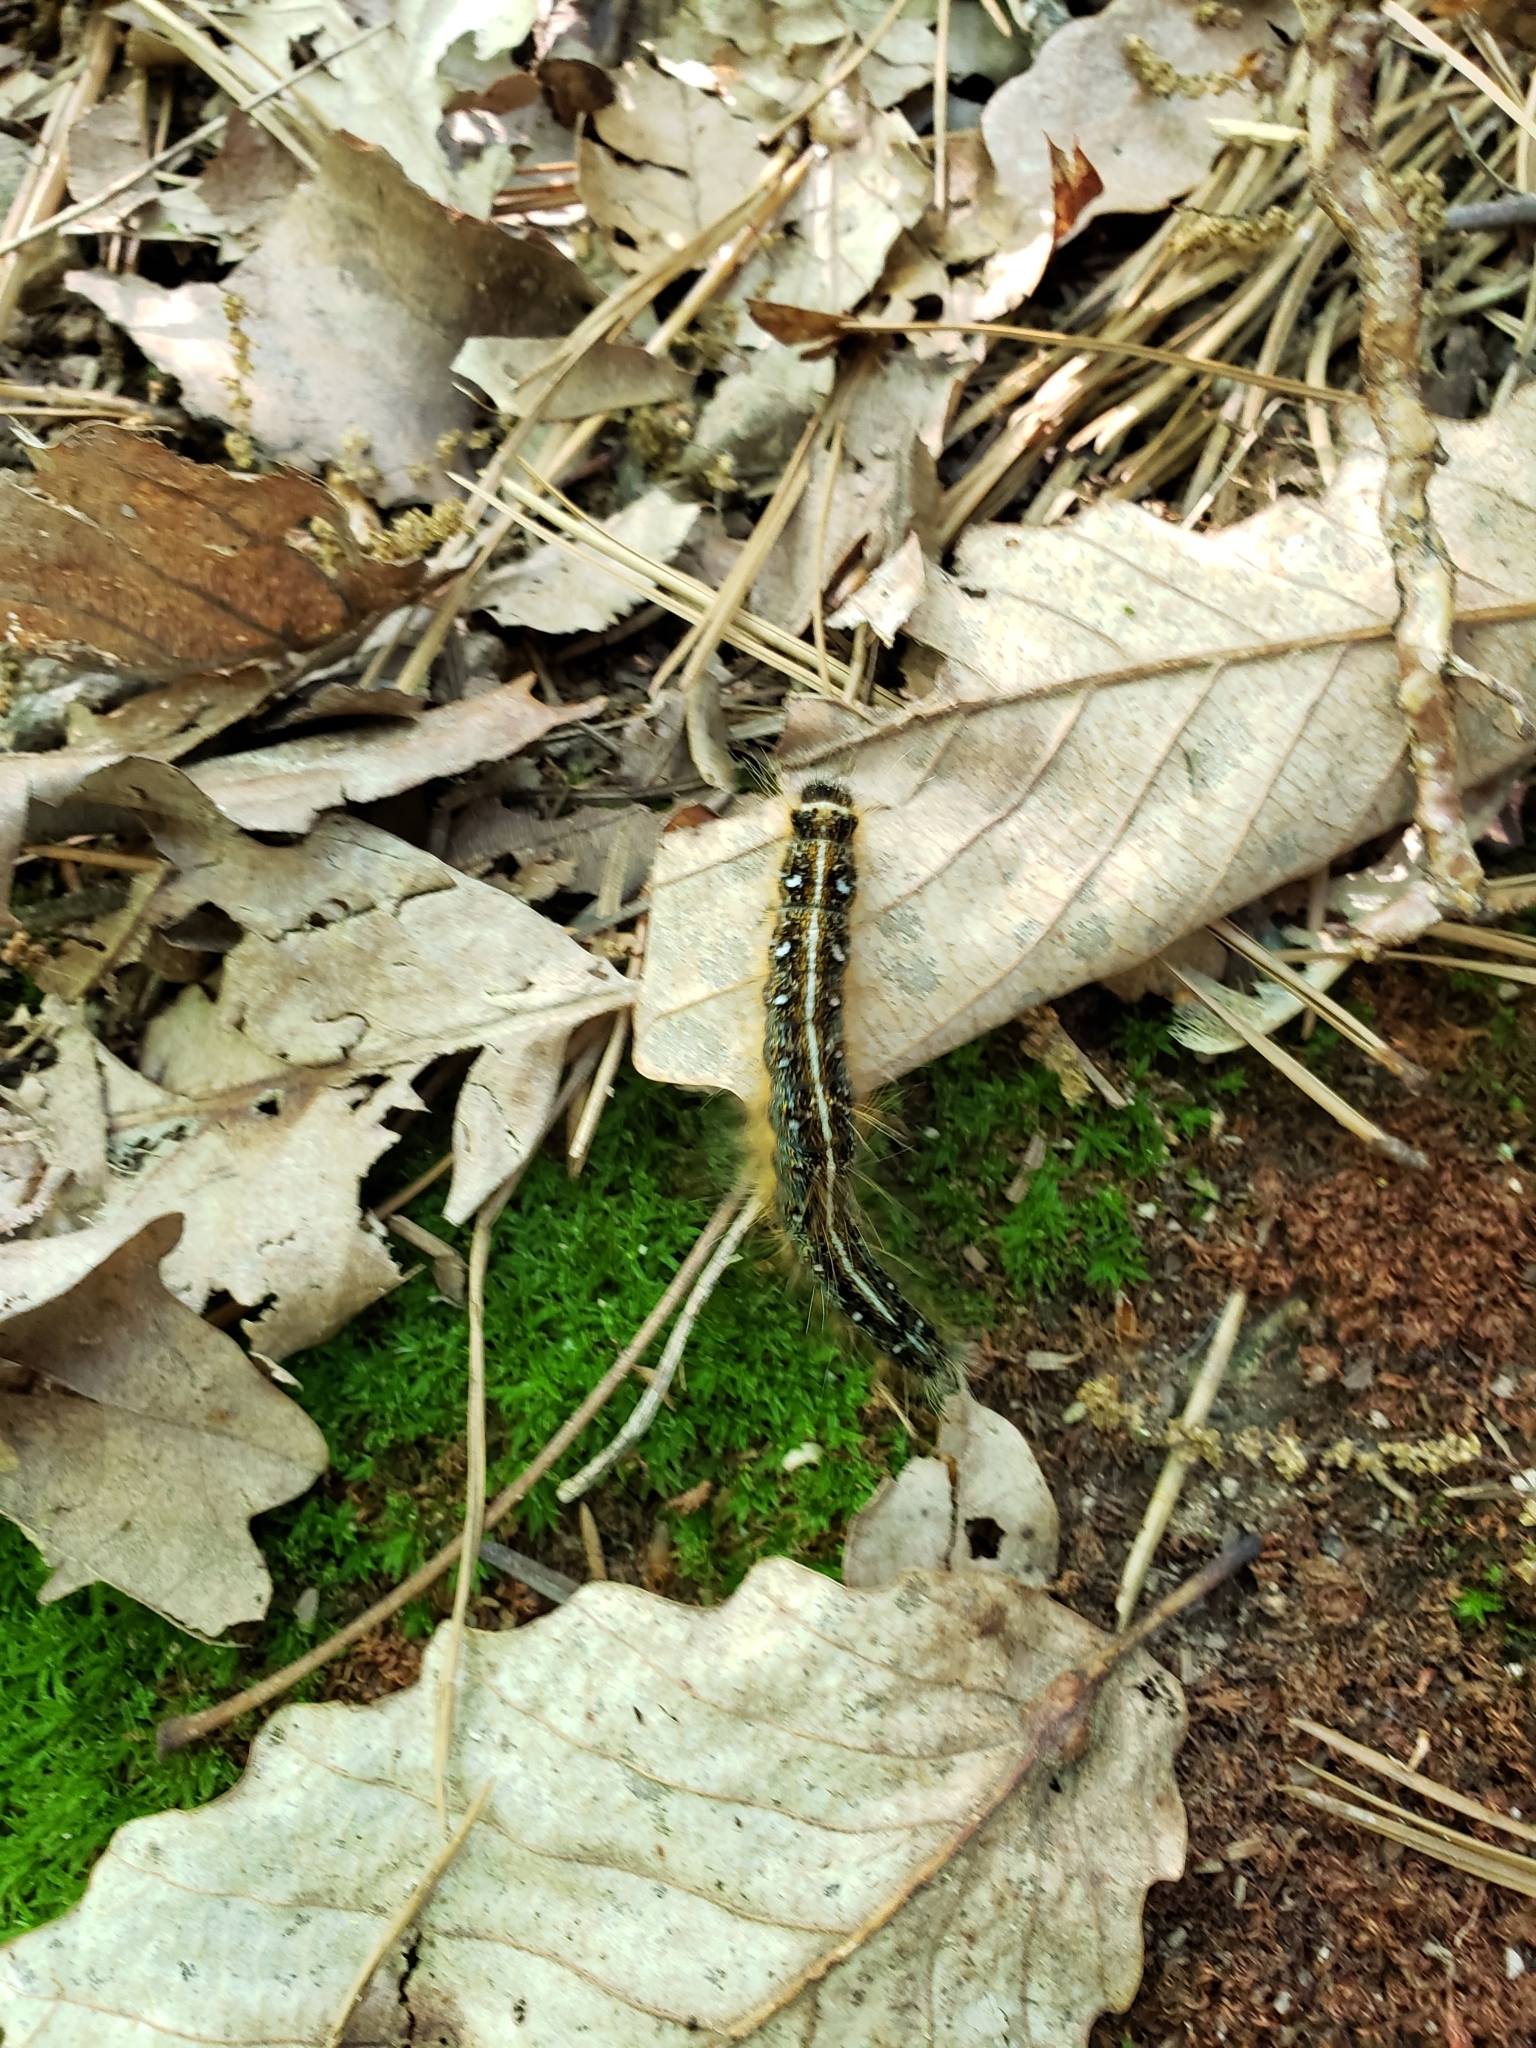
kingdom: Animalia
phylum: Arthropoda
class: Insecta
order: Lepidoptera
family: Lasiocampidae
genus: Malacosoma
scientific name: Malacosoma americana
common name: Eastern tent caterpillar moth
